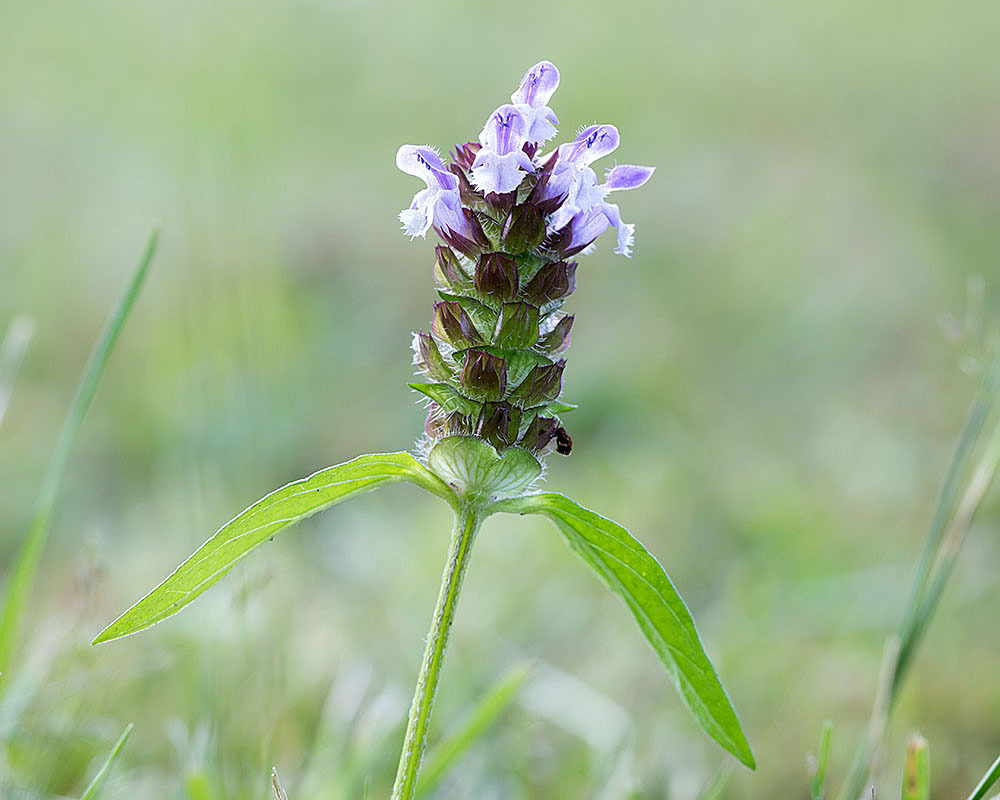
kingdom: Plantae
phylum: Tracheophyta
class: Magnoliopsida
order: Lamiales
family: Lamiaceae
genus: Prunella
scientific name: Prunella vulgaris
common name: Heal-all
